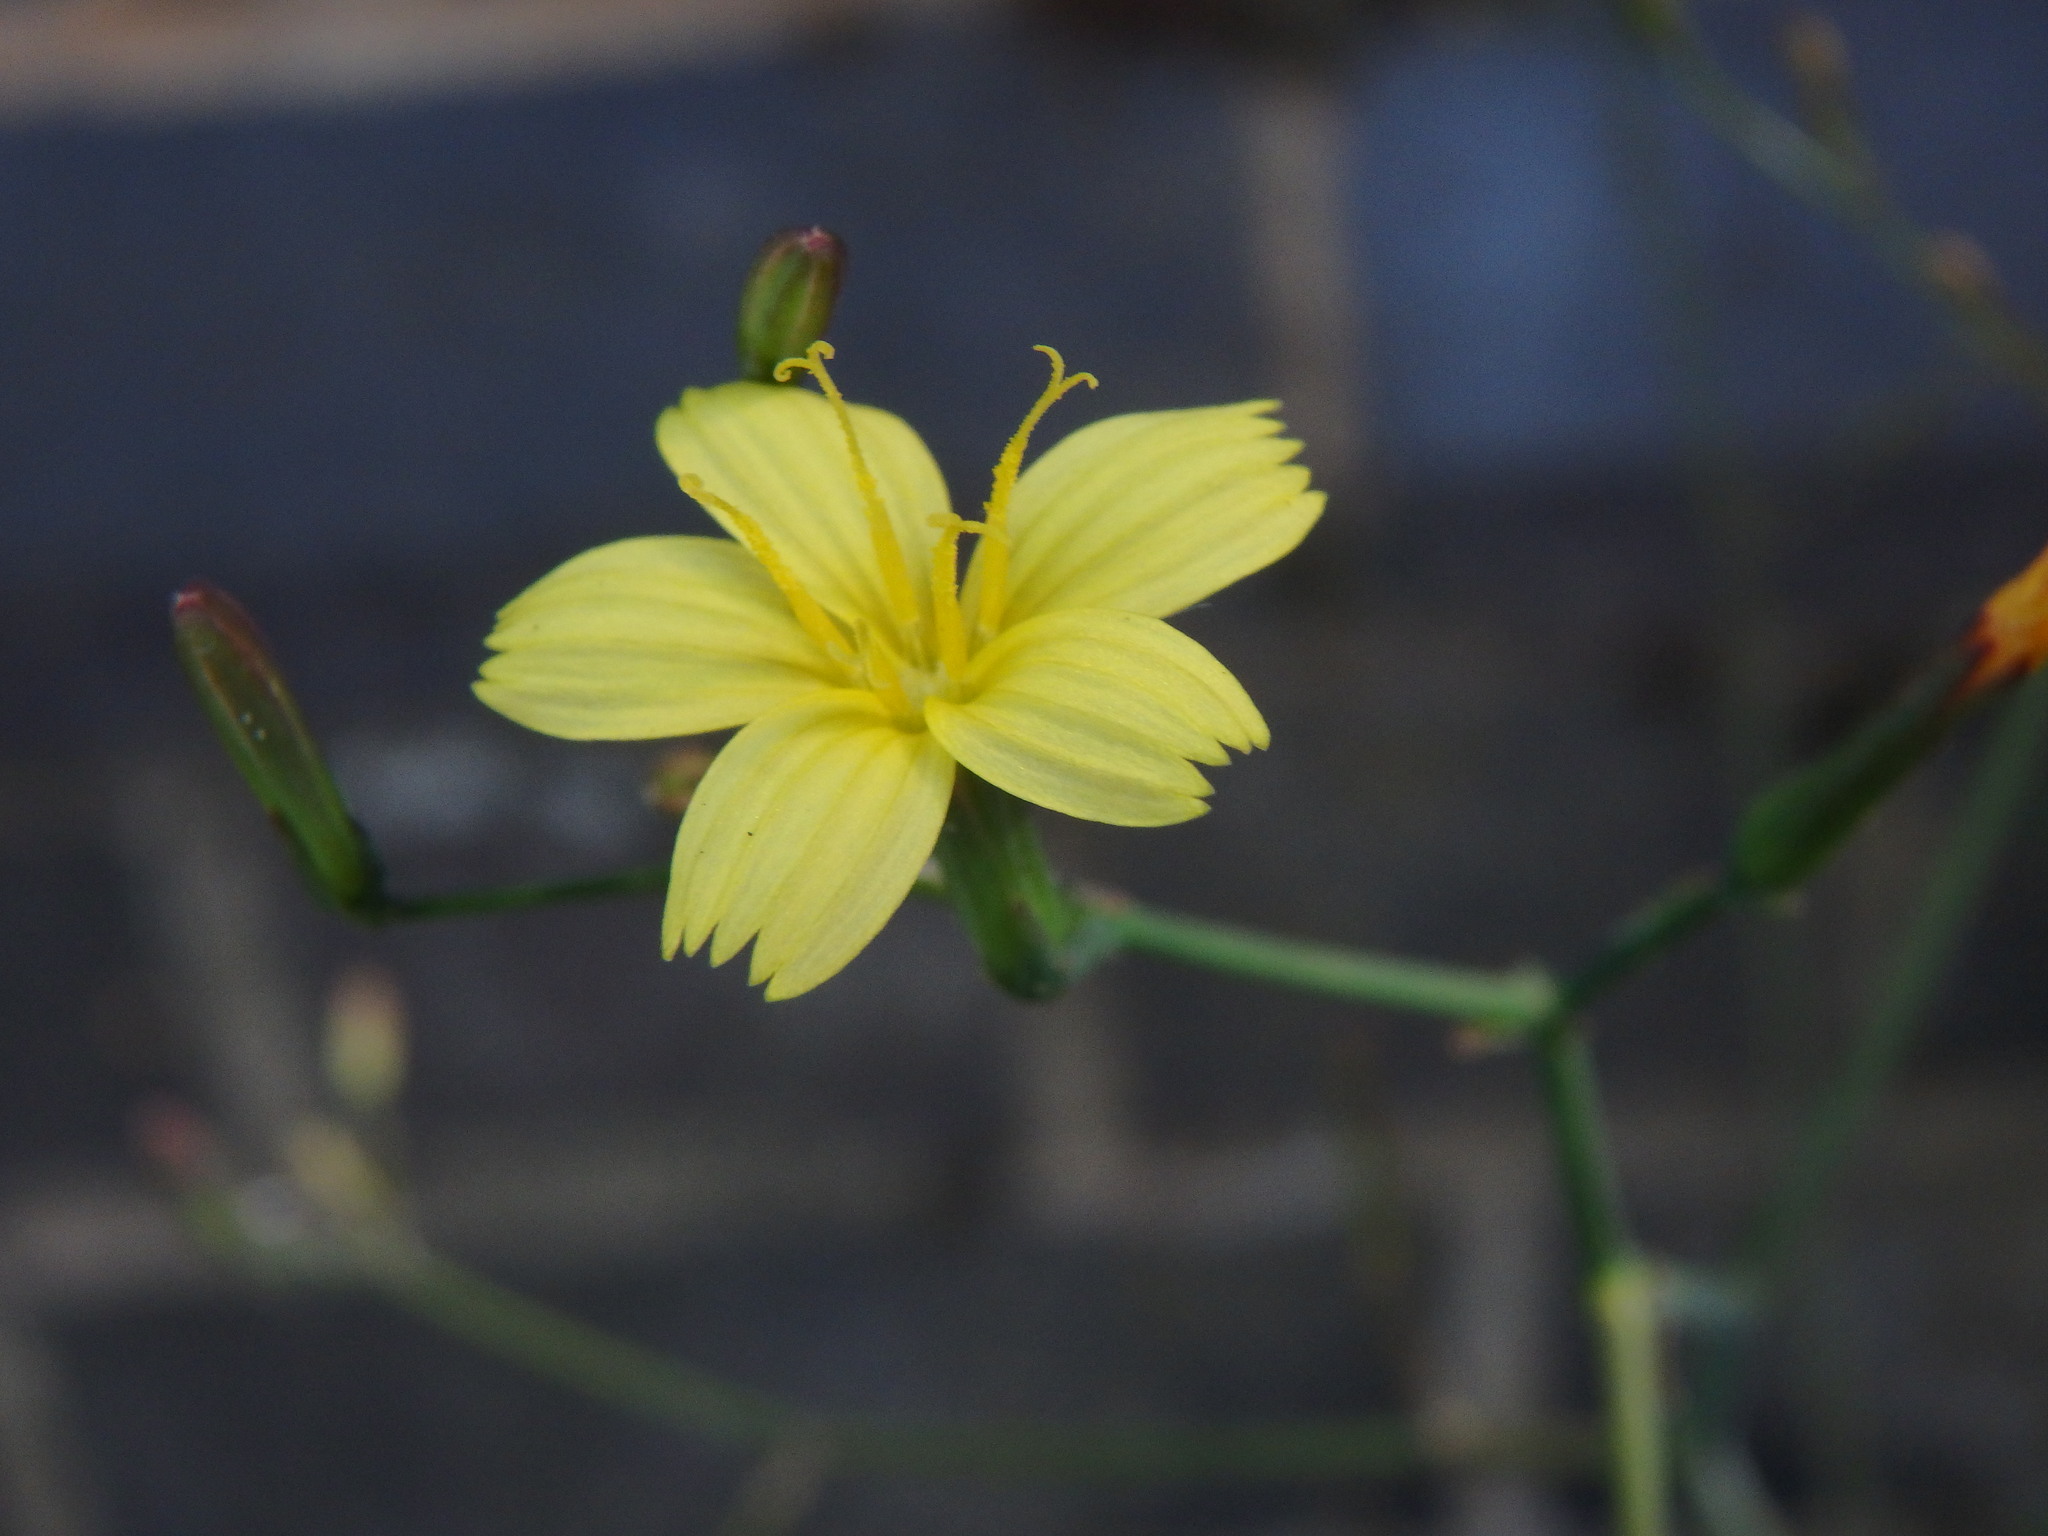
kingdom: Plantae
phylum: Tracheophyta
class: Magnoliopsida
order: Asterales
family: Asteraceae
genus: Mycelis
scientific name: Mycelis muralis
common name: Wall lettuce
